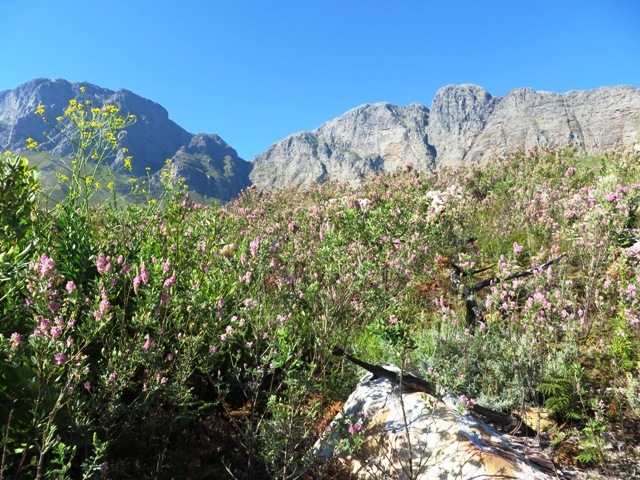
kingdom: Plantae
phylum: Tracheophyta
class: Magnoliopsida
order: Fabales
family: Fabaceae
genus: Indigofera
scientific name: Indigofera cytisoides
